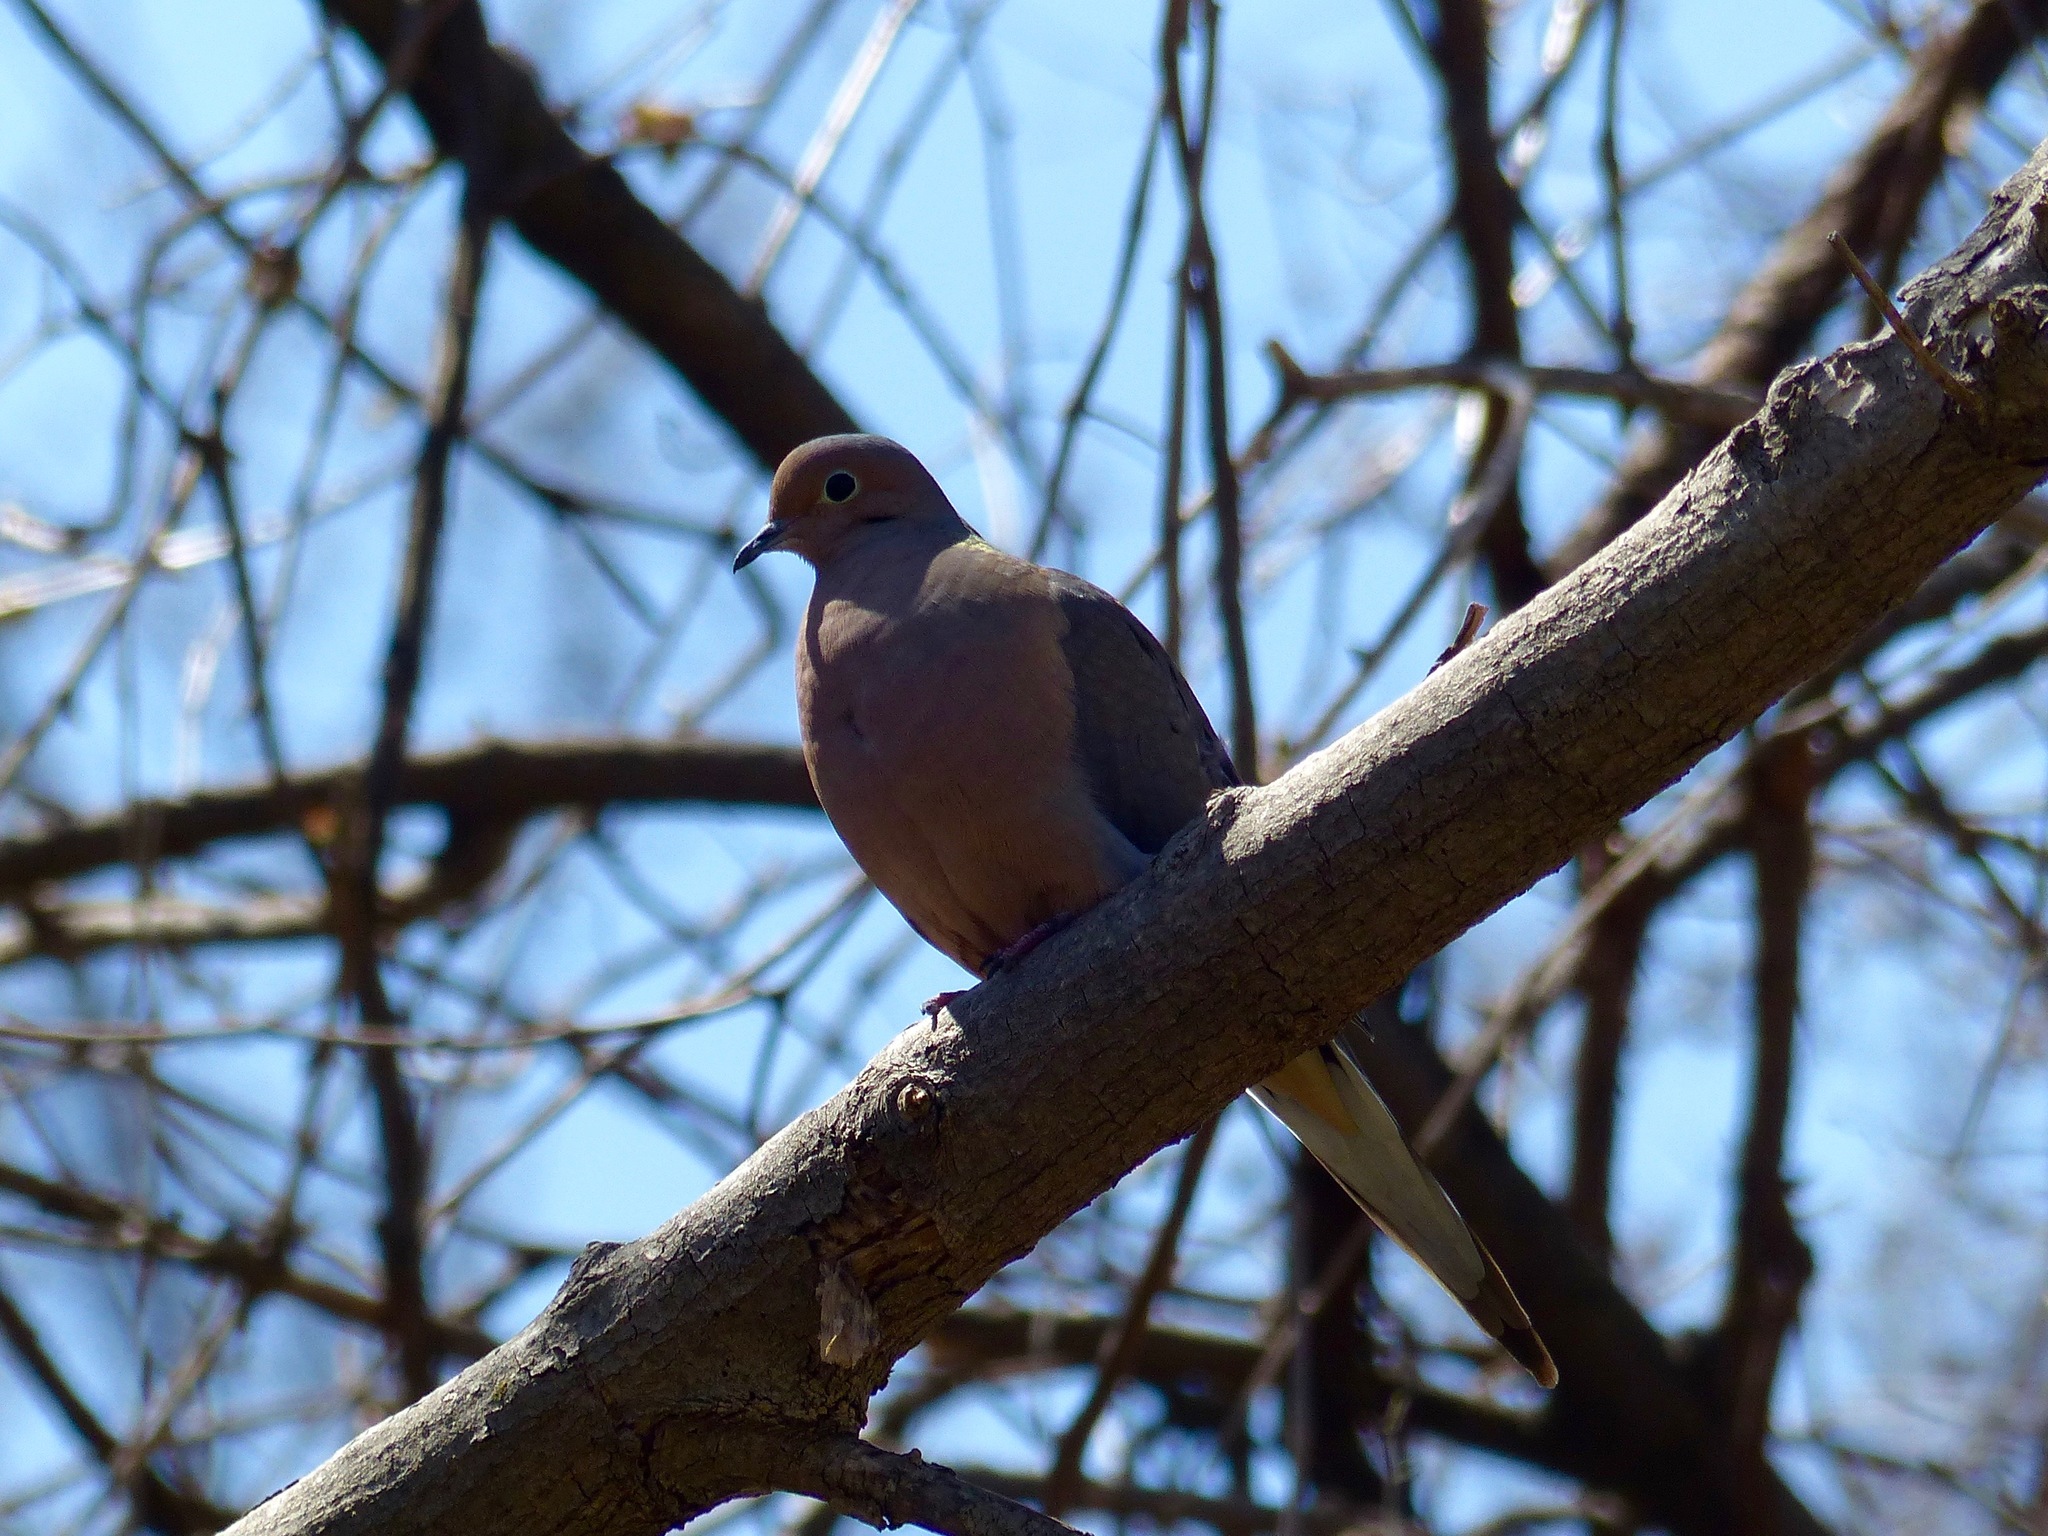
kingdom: Animalia
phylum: Chordata
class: Aves
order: Columbiformes
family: Columbidae
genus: Zenaida
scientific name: Zenaida macroura
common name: Mourning dove
